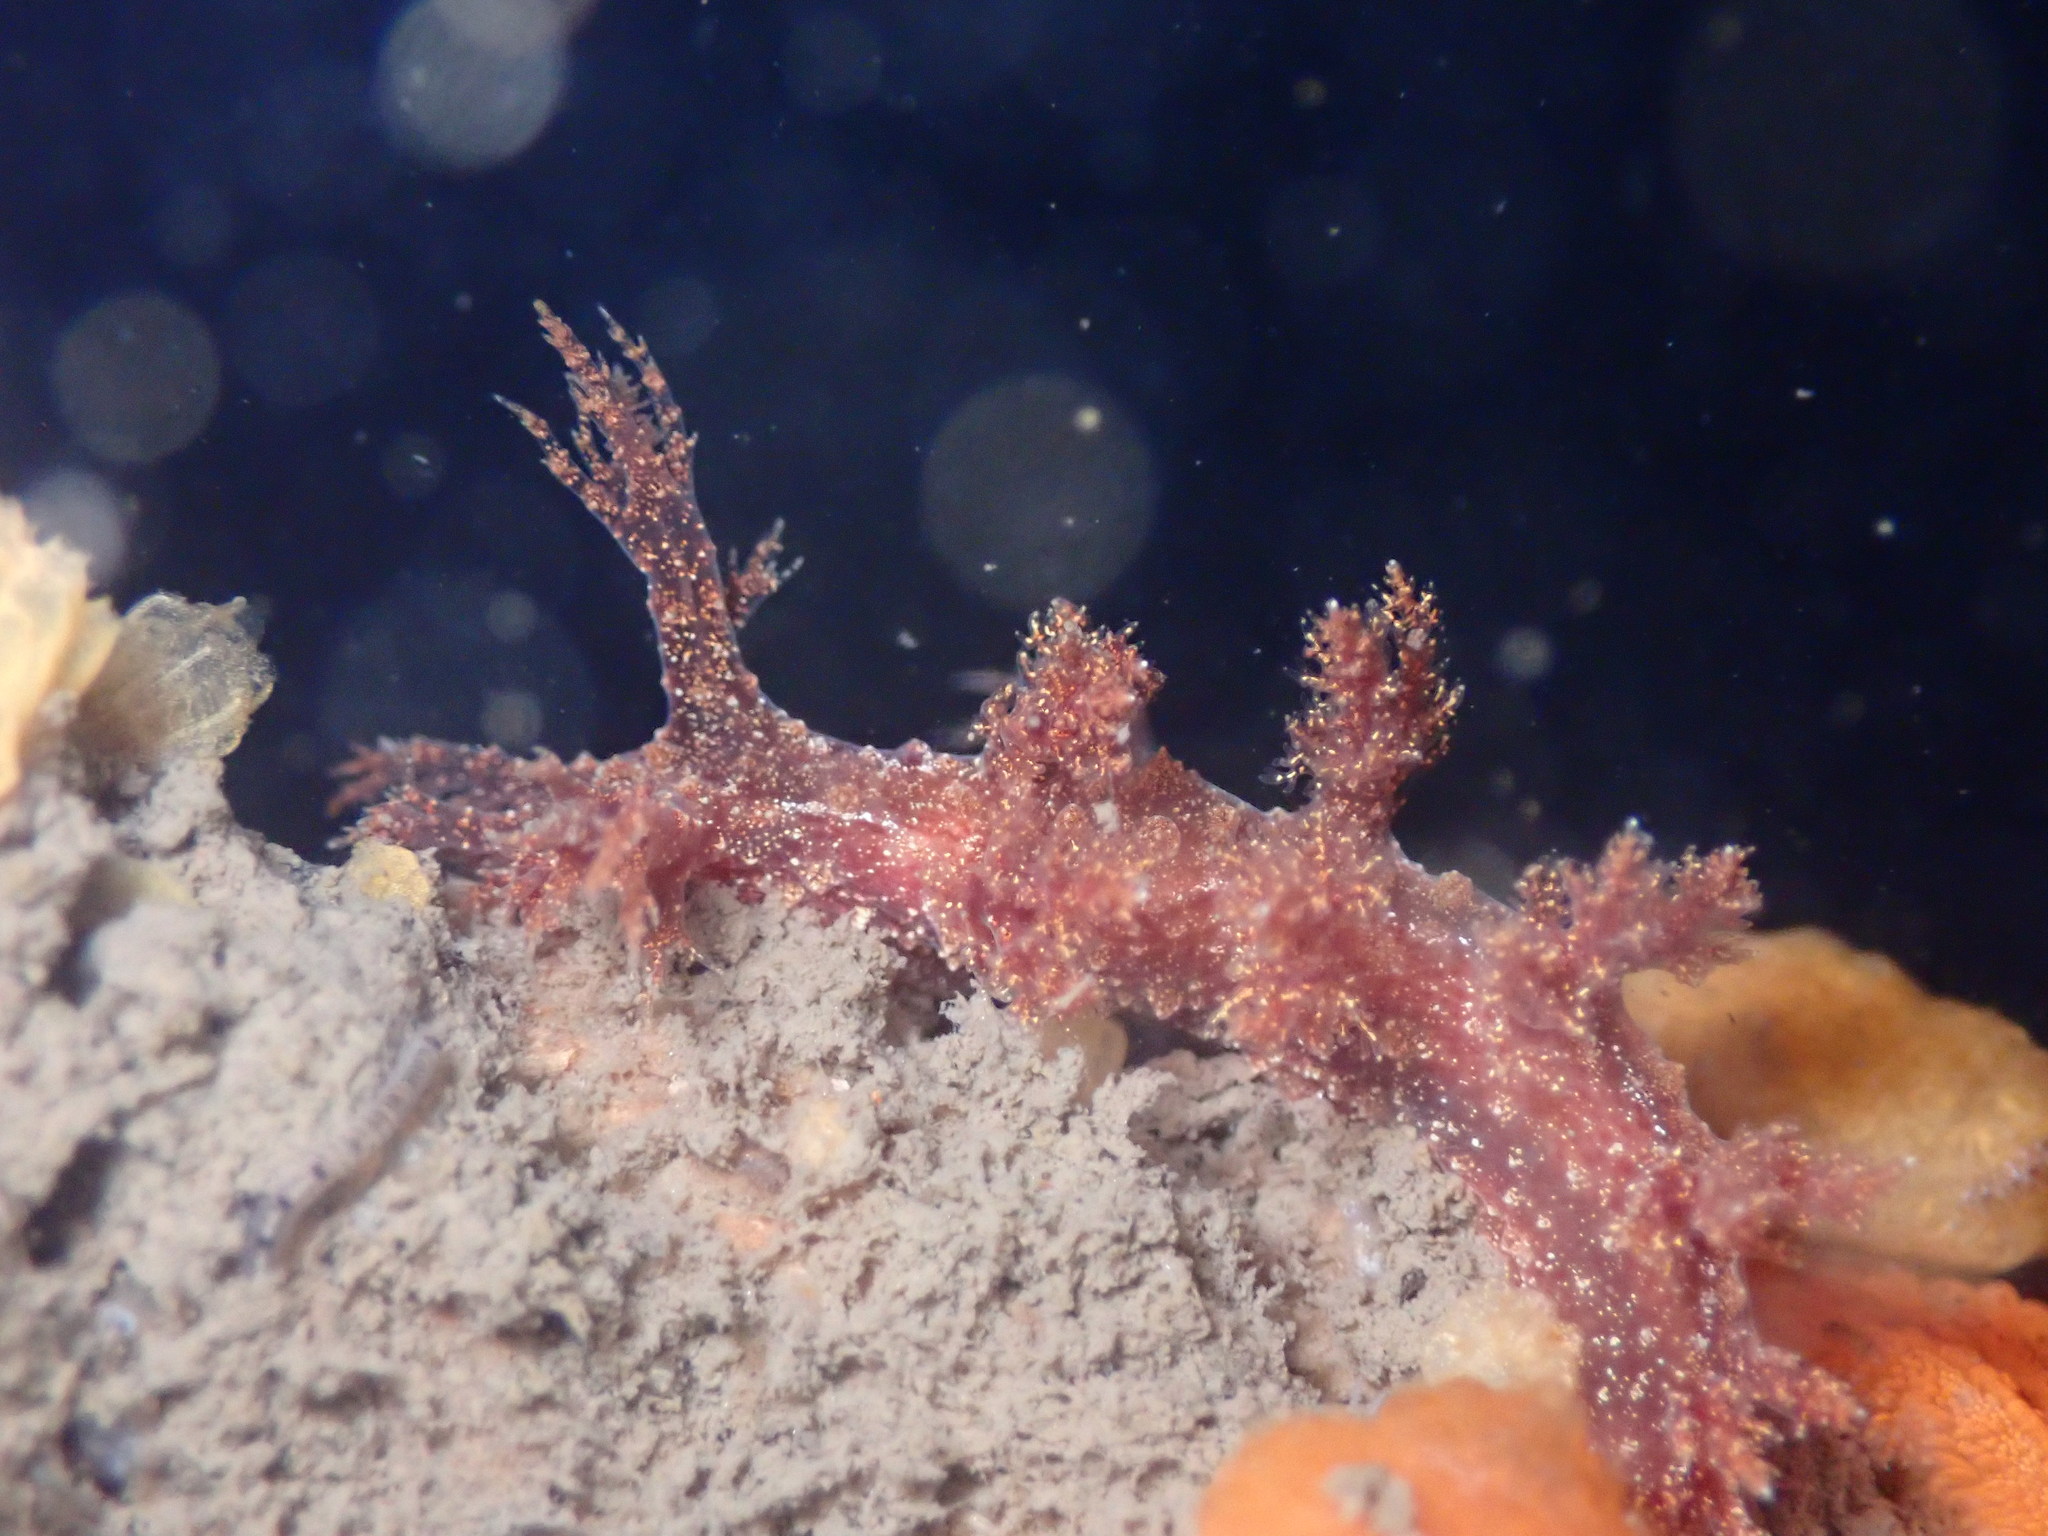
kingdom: Animalia
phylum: Mollusca
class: Gastropoda
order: Nudibranchia
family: Dendronotidae
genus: Dendronotus
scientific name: Dendronotus venustus
